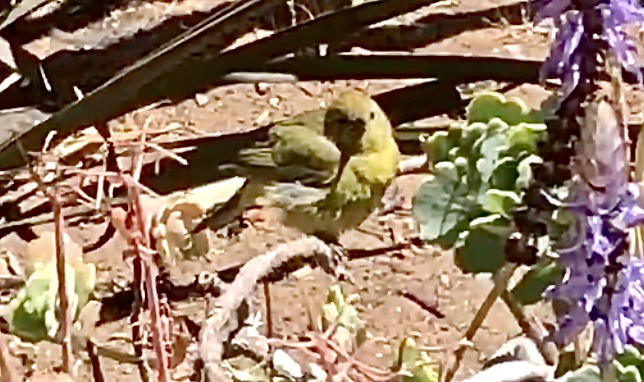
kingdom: Animalia
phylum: Chordata
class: Aves
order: Passeriformes
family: Parulidae
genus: Leiothlypis
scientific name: Leiothlypis celata
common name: Orange-crowned warbler
